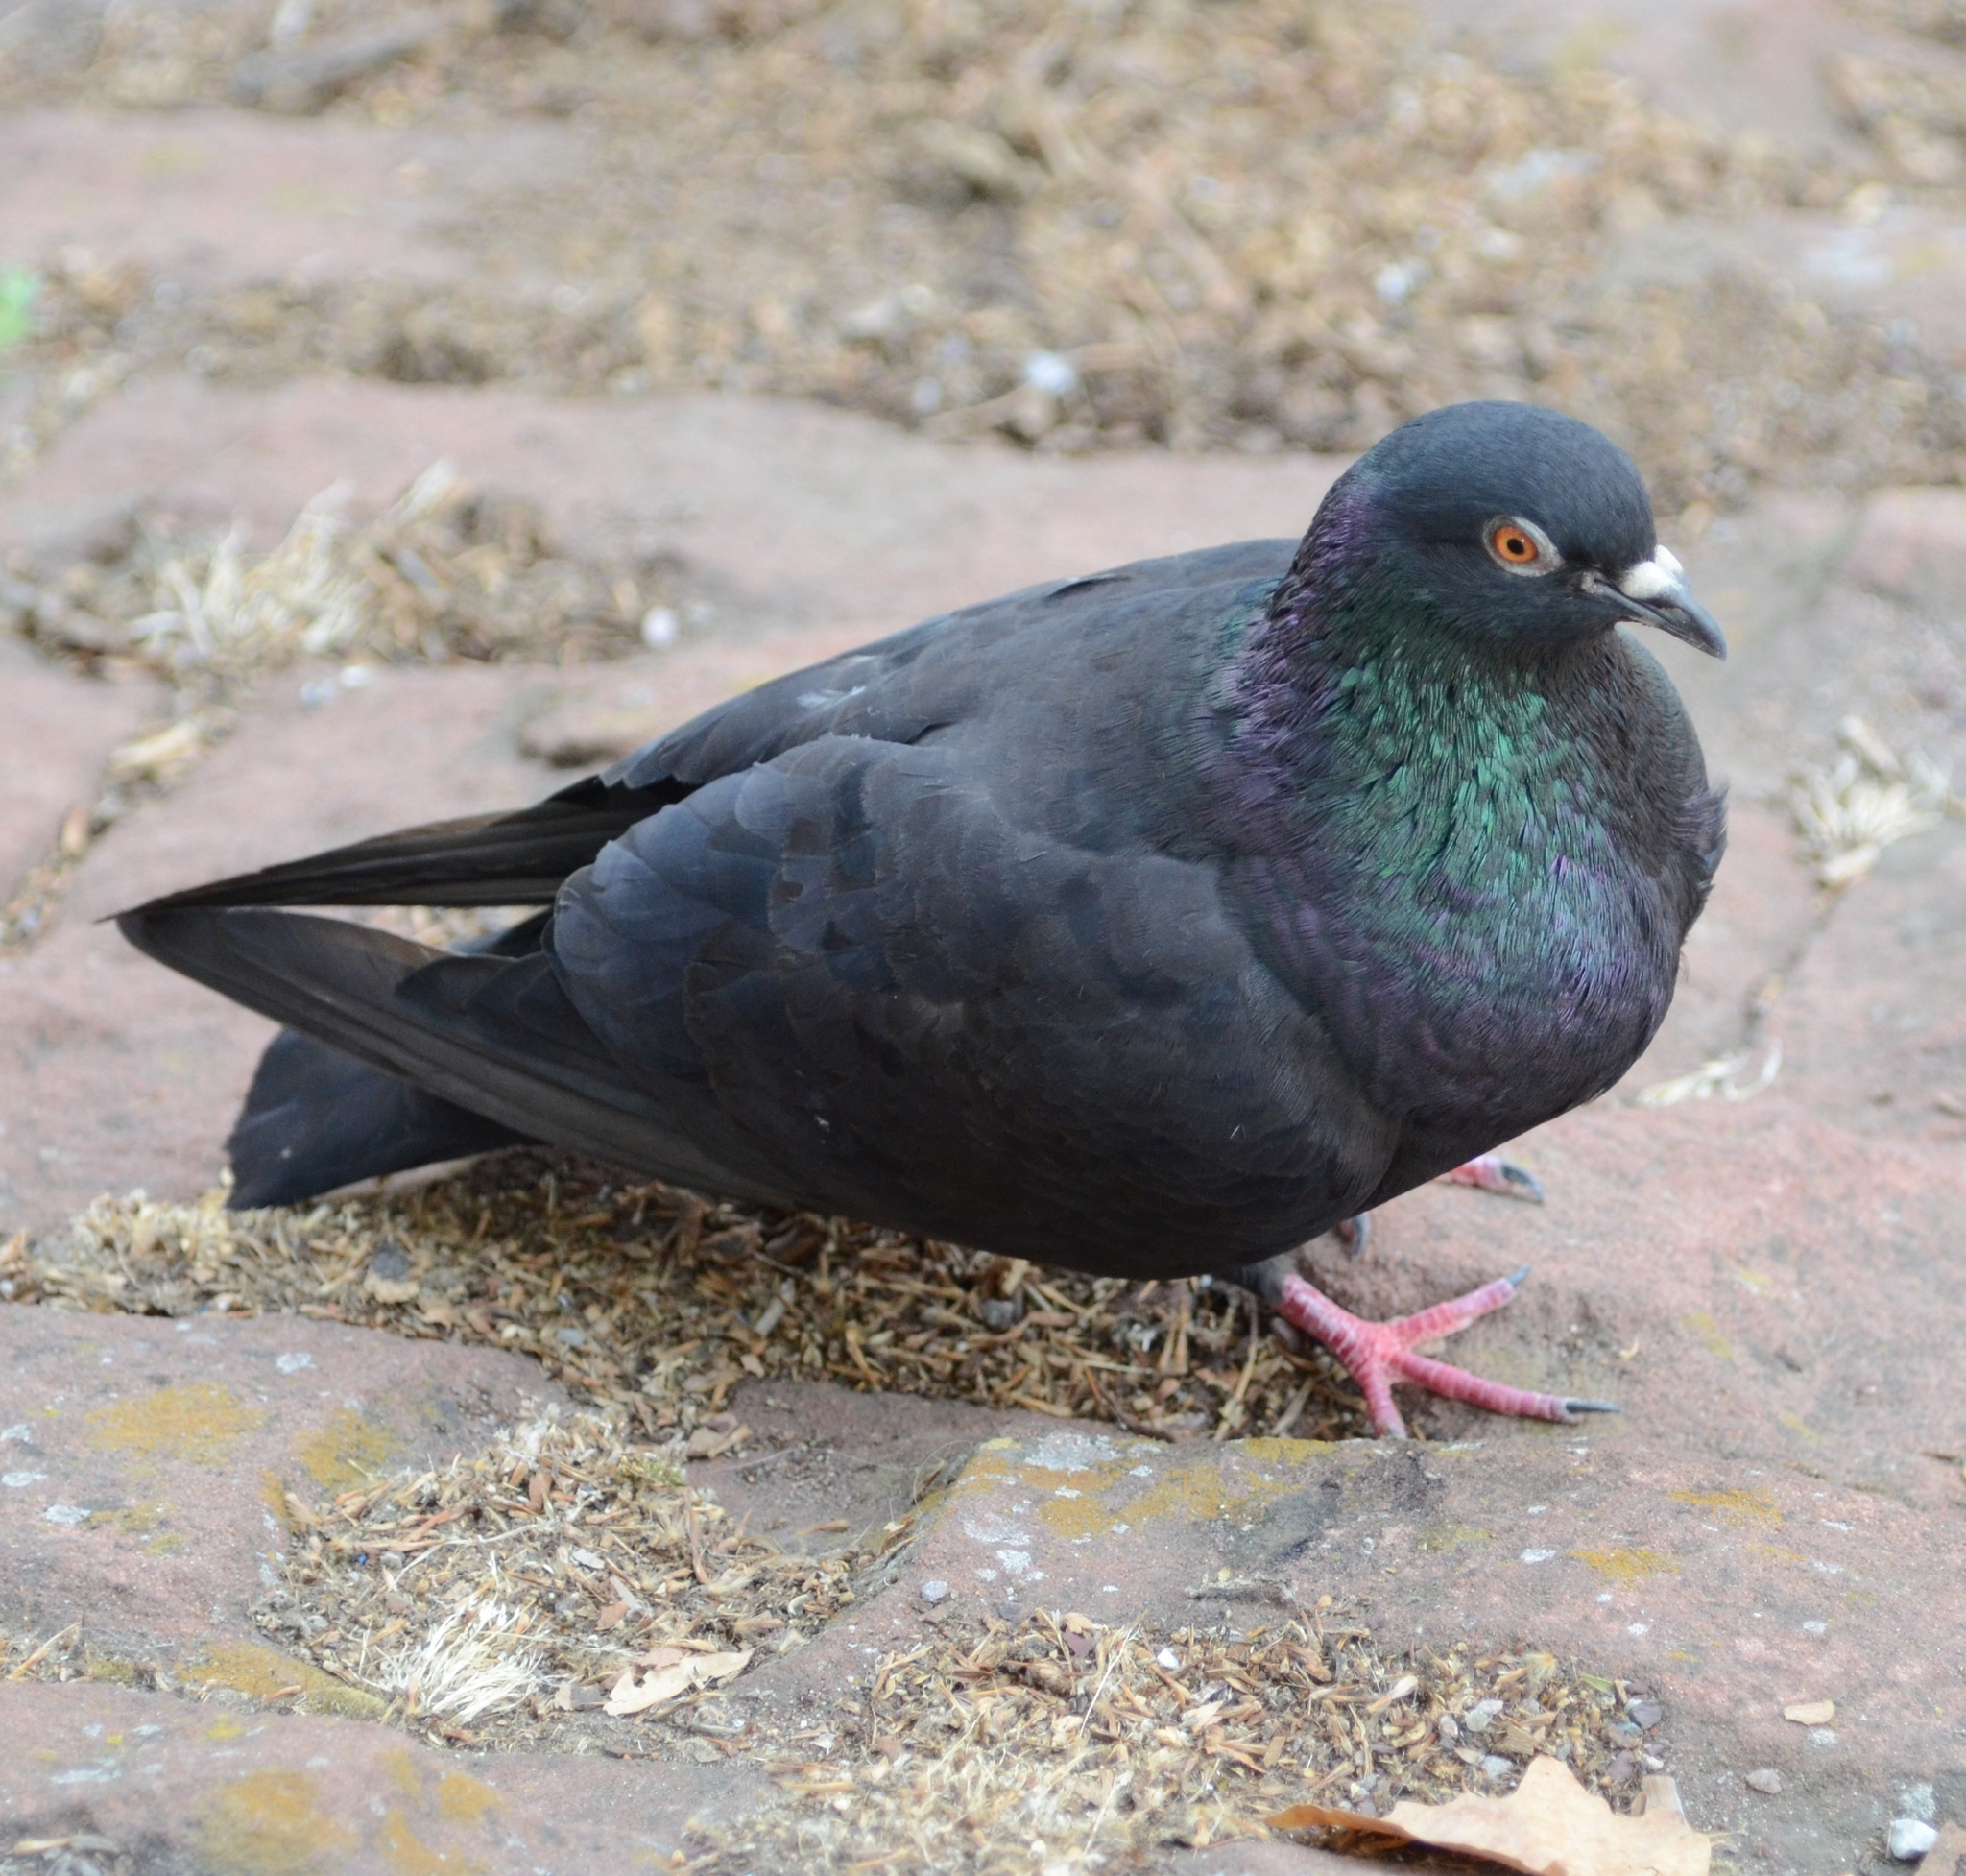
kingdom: Animalia
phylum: Chordata
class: Aves
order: Columbiformes
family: Columbidae
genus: Columba
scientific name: Columba livia
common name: Rock pigeon
